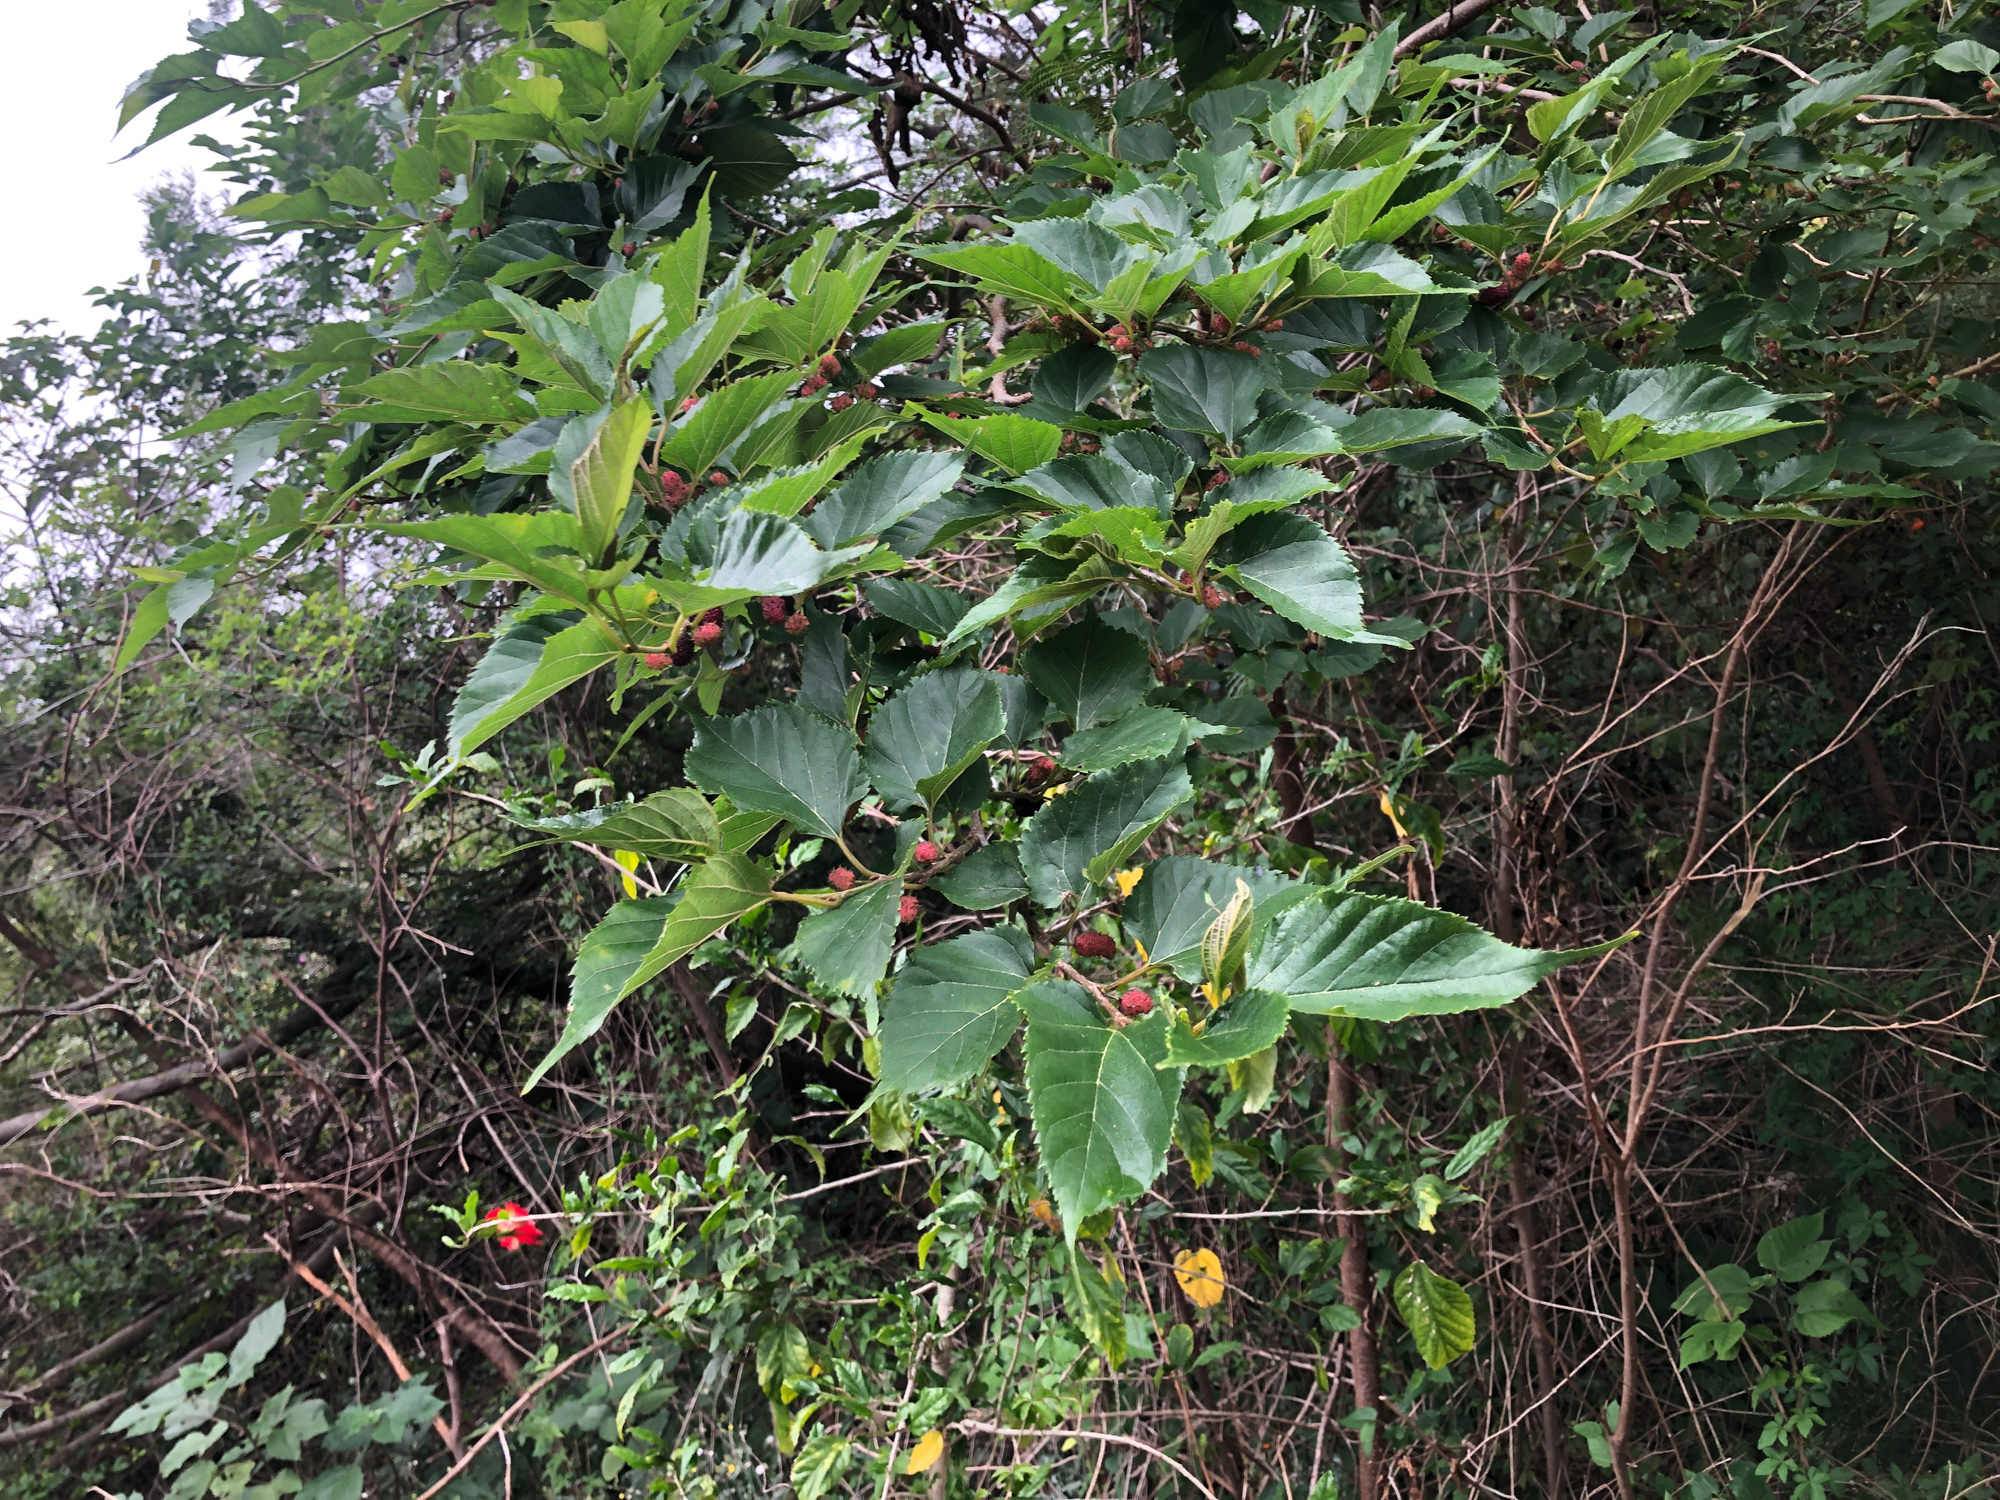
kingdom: Plantae
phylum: Tracheophyta
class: Magnoliopsida
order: Rosales
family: Moraceae
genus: Morus
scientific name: Morus indica
